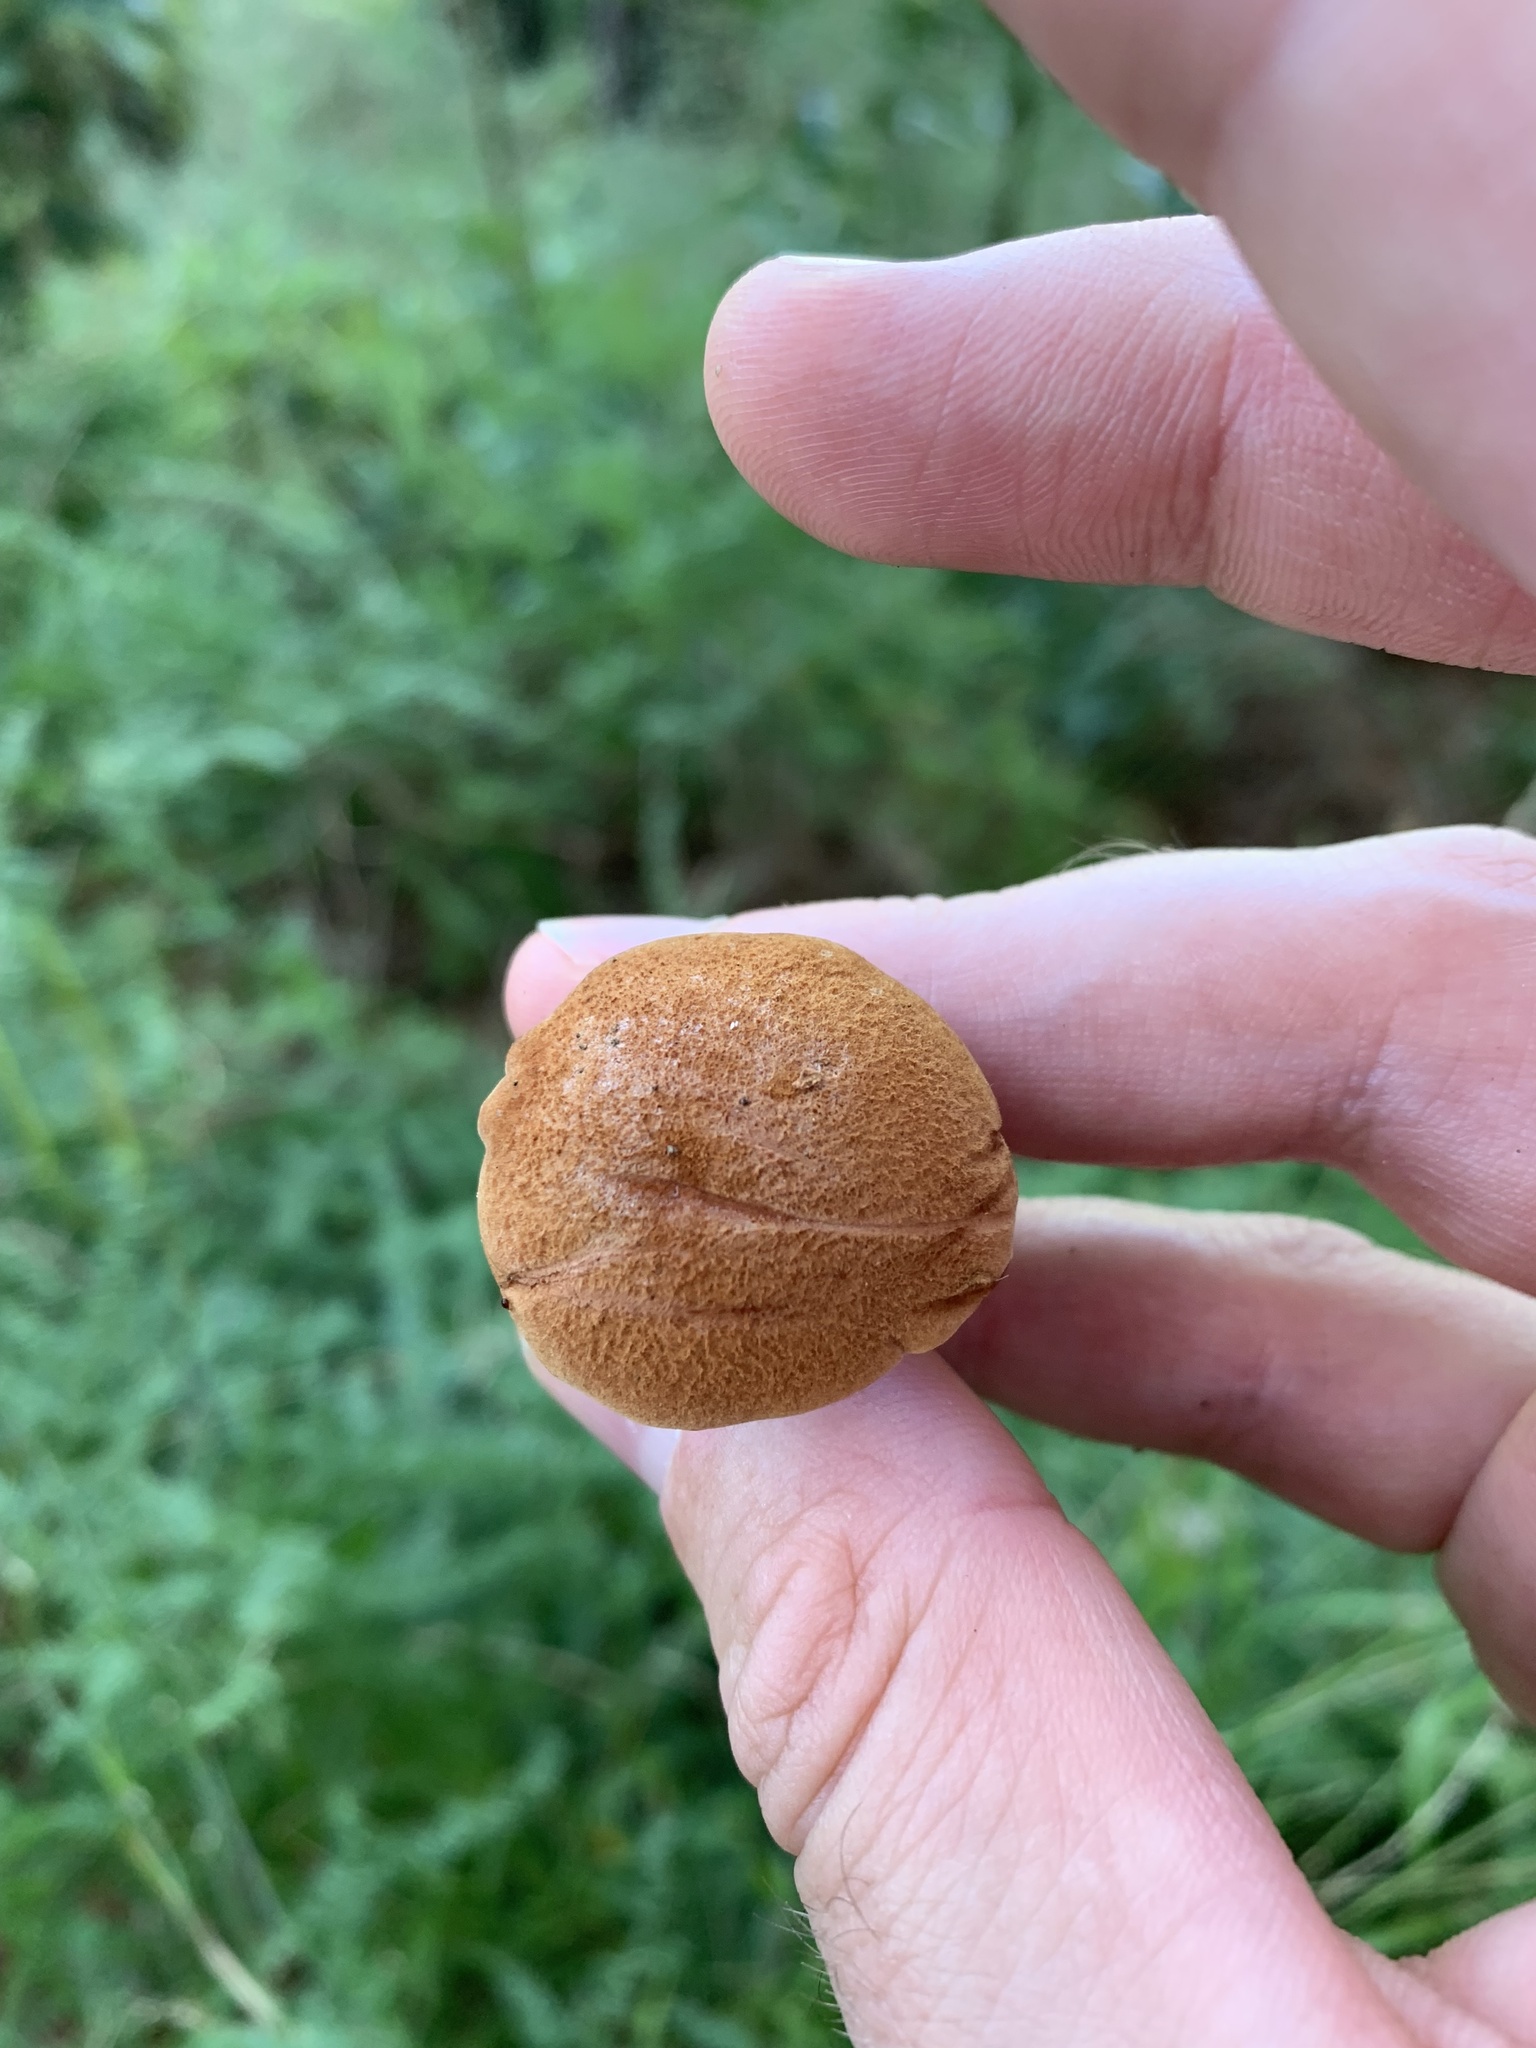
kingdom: Fungi
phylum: Basidiomycota
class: Agaricomycetes
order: Boletales
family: Boletaceae
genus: Chalciporus
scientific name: Chalciporus piperatus
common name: Peppery bolete
